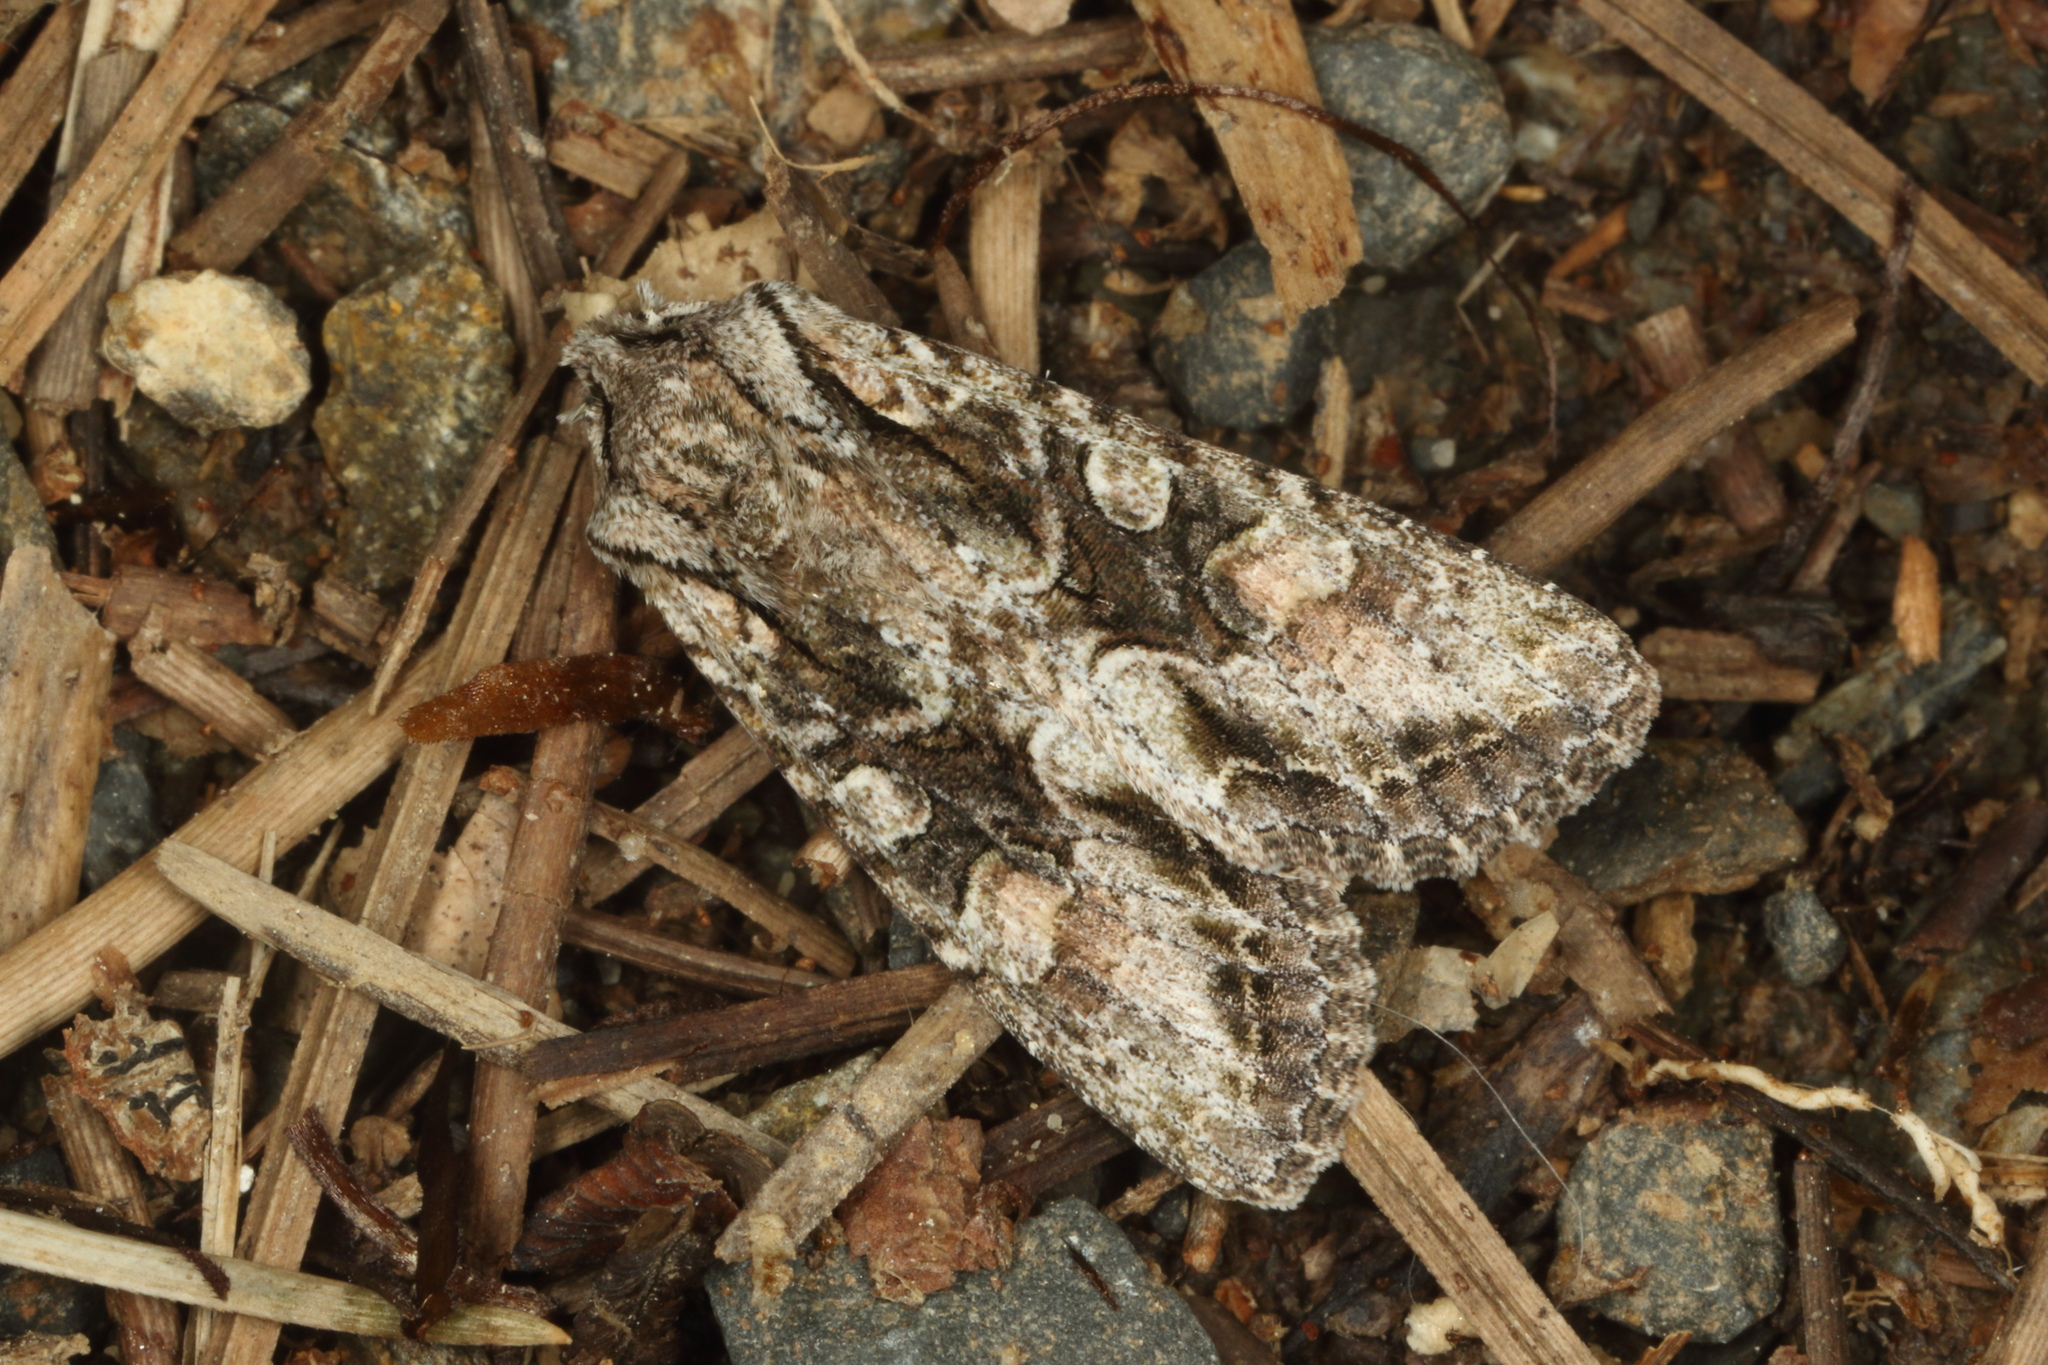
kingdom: Animalia
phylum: Arthropoda
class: Insecta
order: Lepidoptera
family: Noctuidae
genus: Ichneutica
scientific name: Ichneutica mutans
